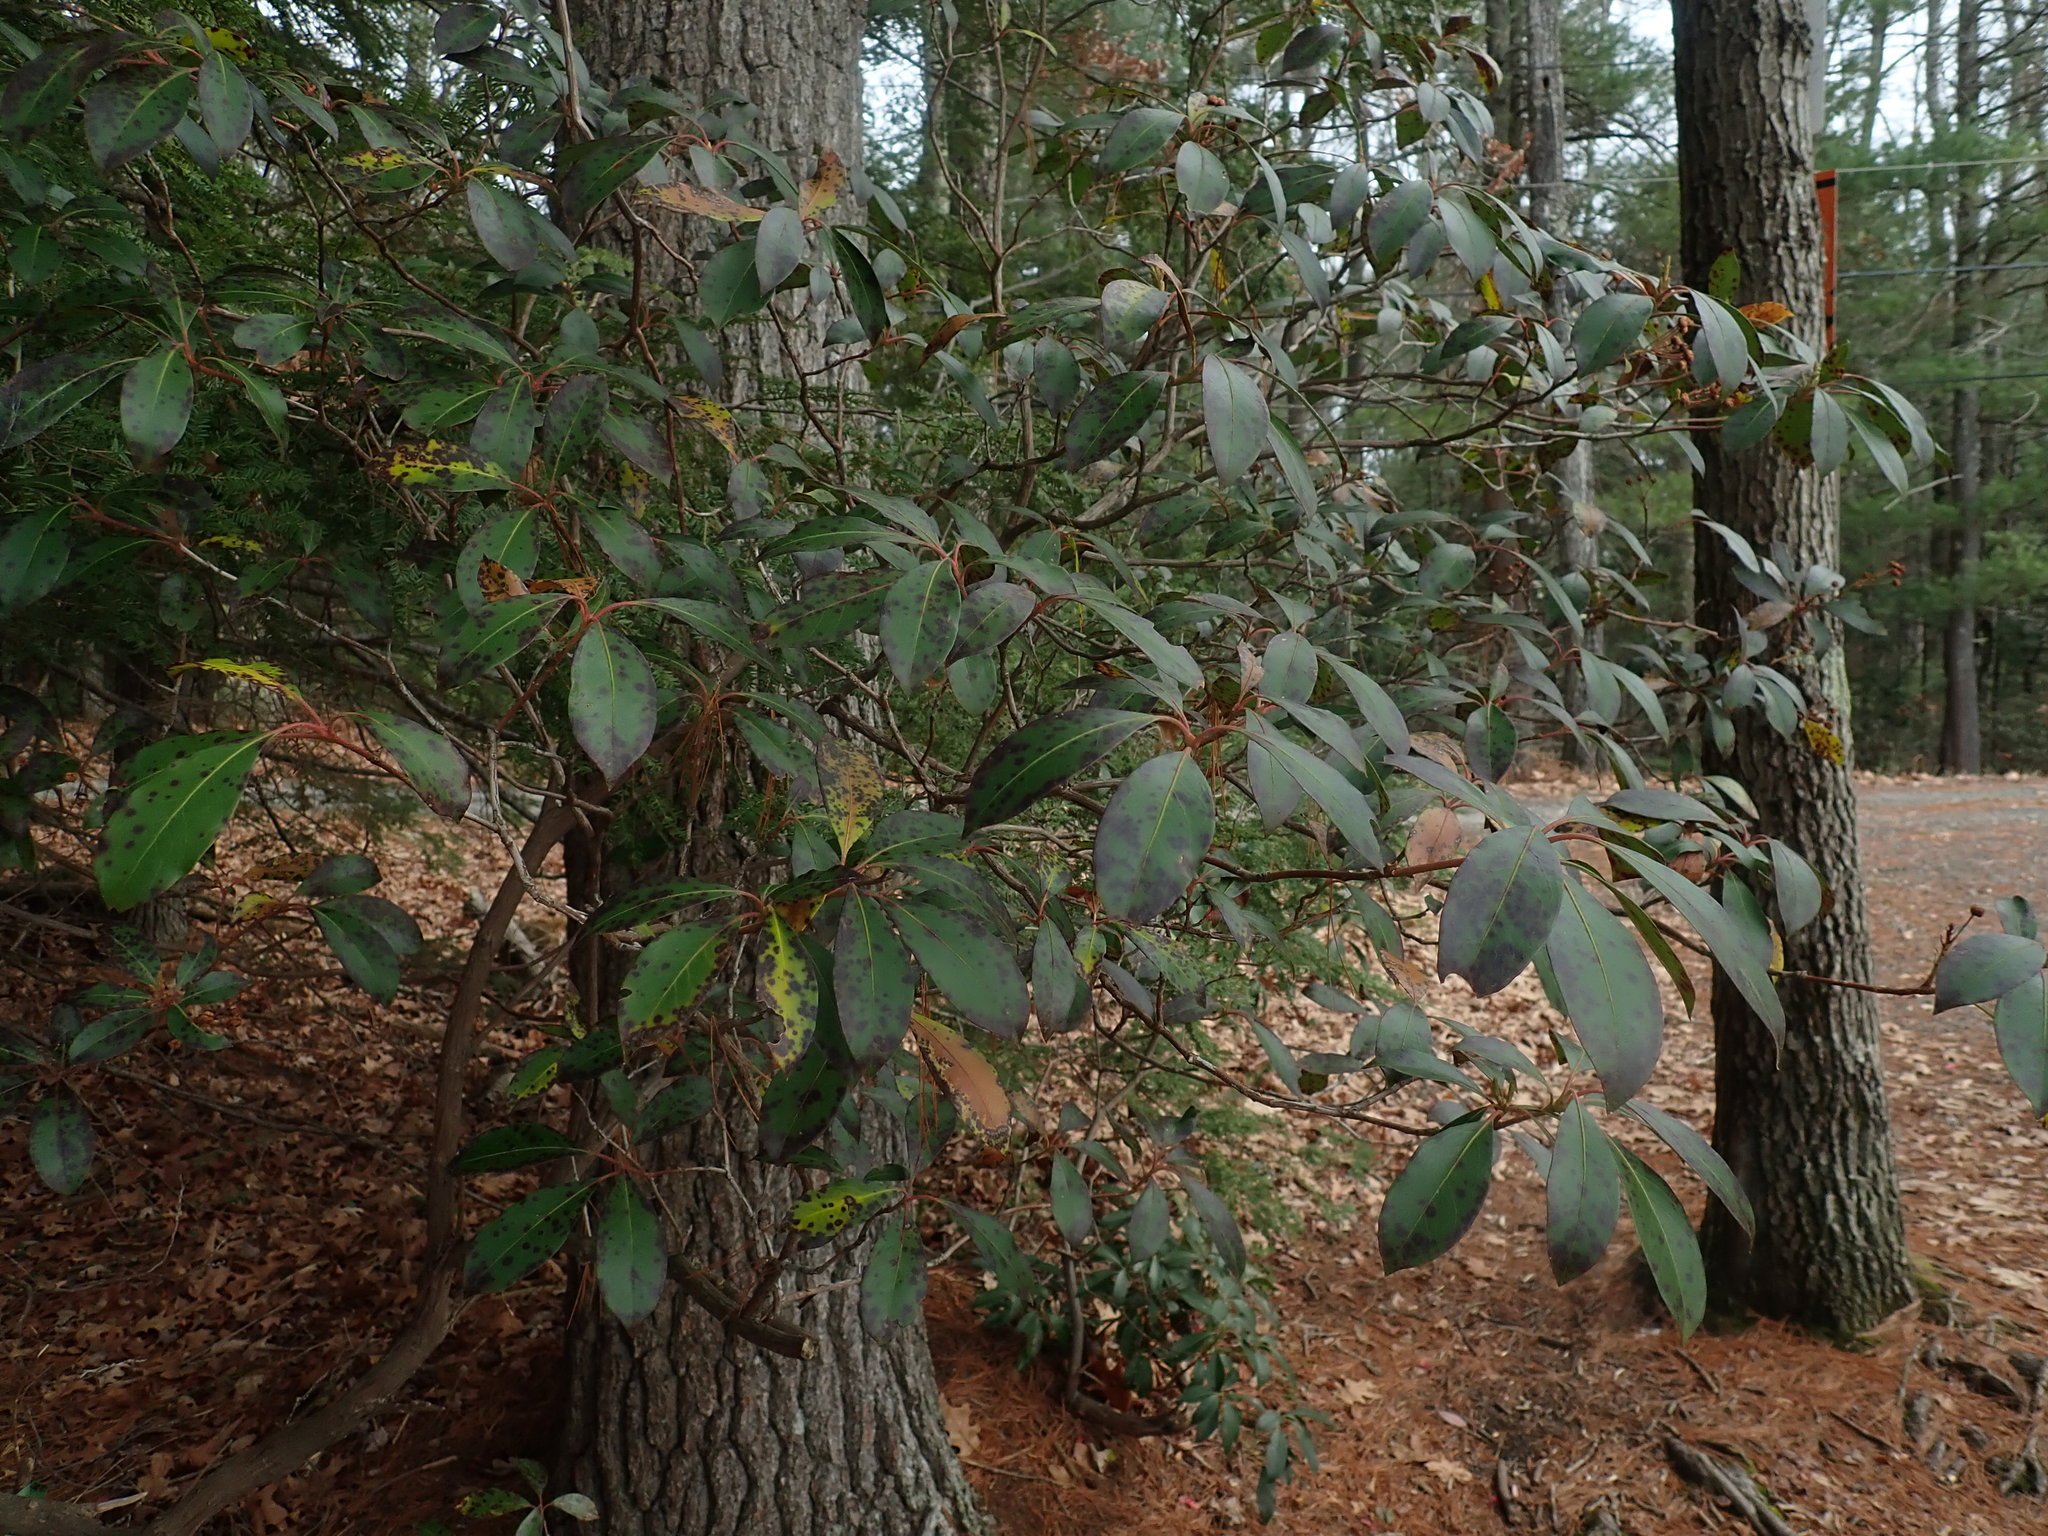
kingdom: Plantae
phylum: Tracheophyta
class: Magnoliopsida
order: Ericales
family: Ericaceae
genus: Kalmia
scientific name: Kalmia latifolia
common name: Mountain-laurel
